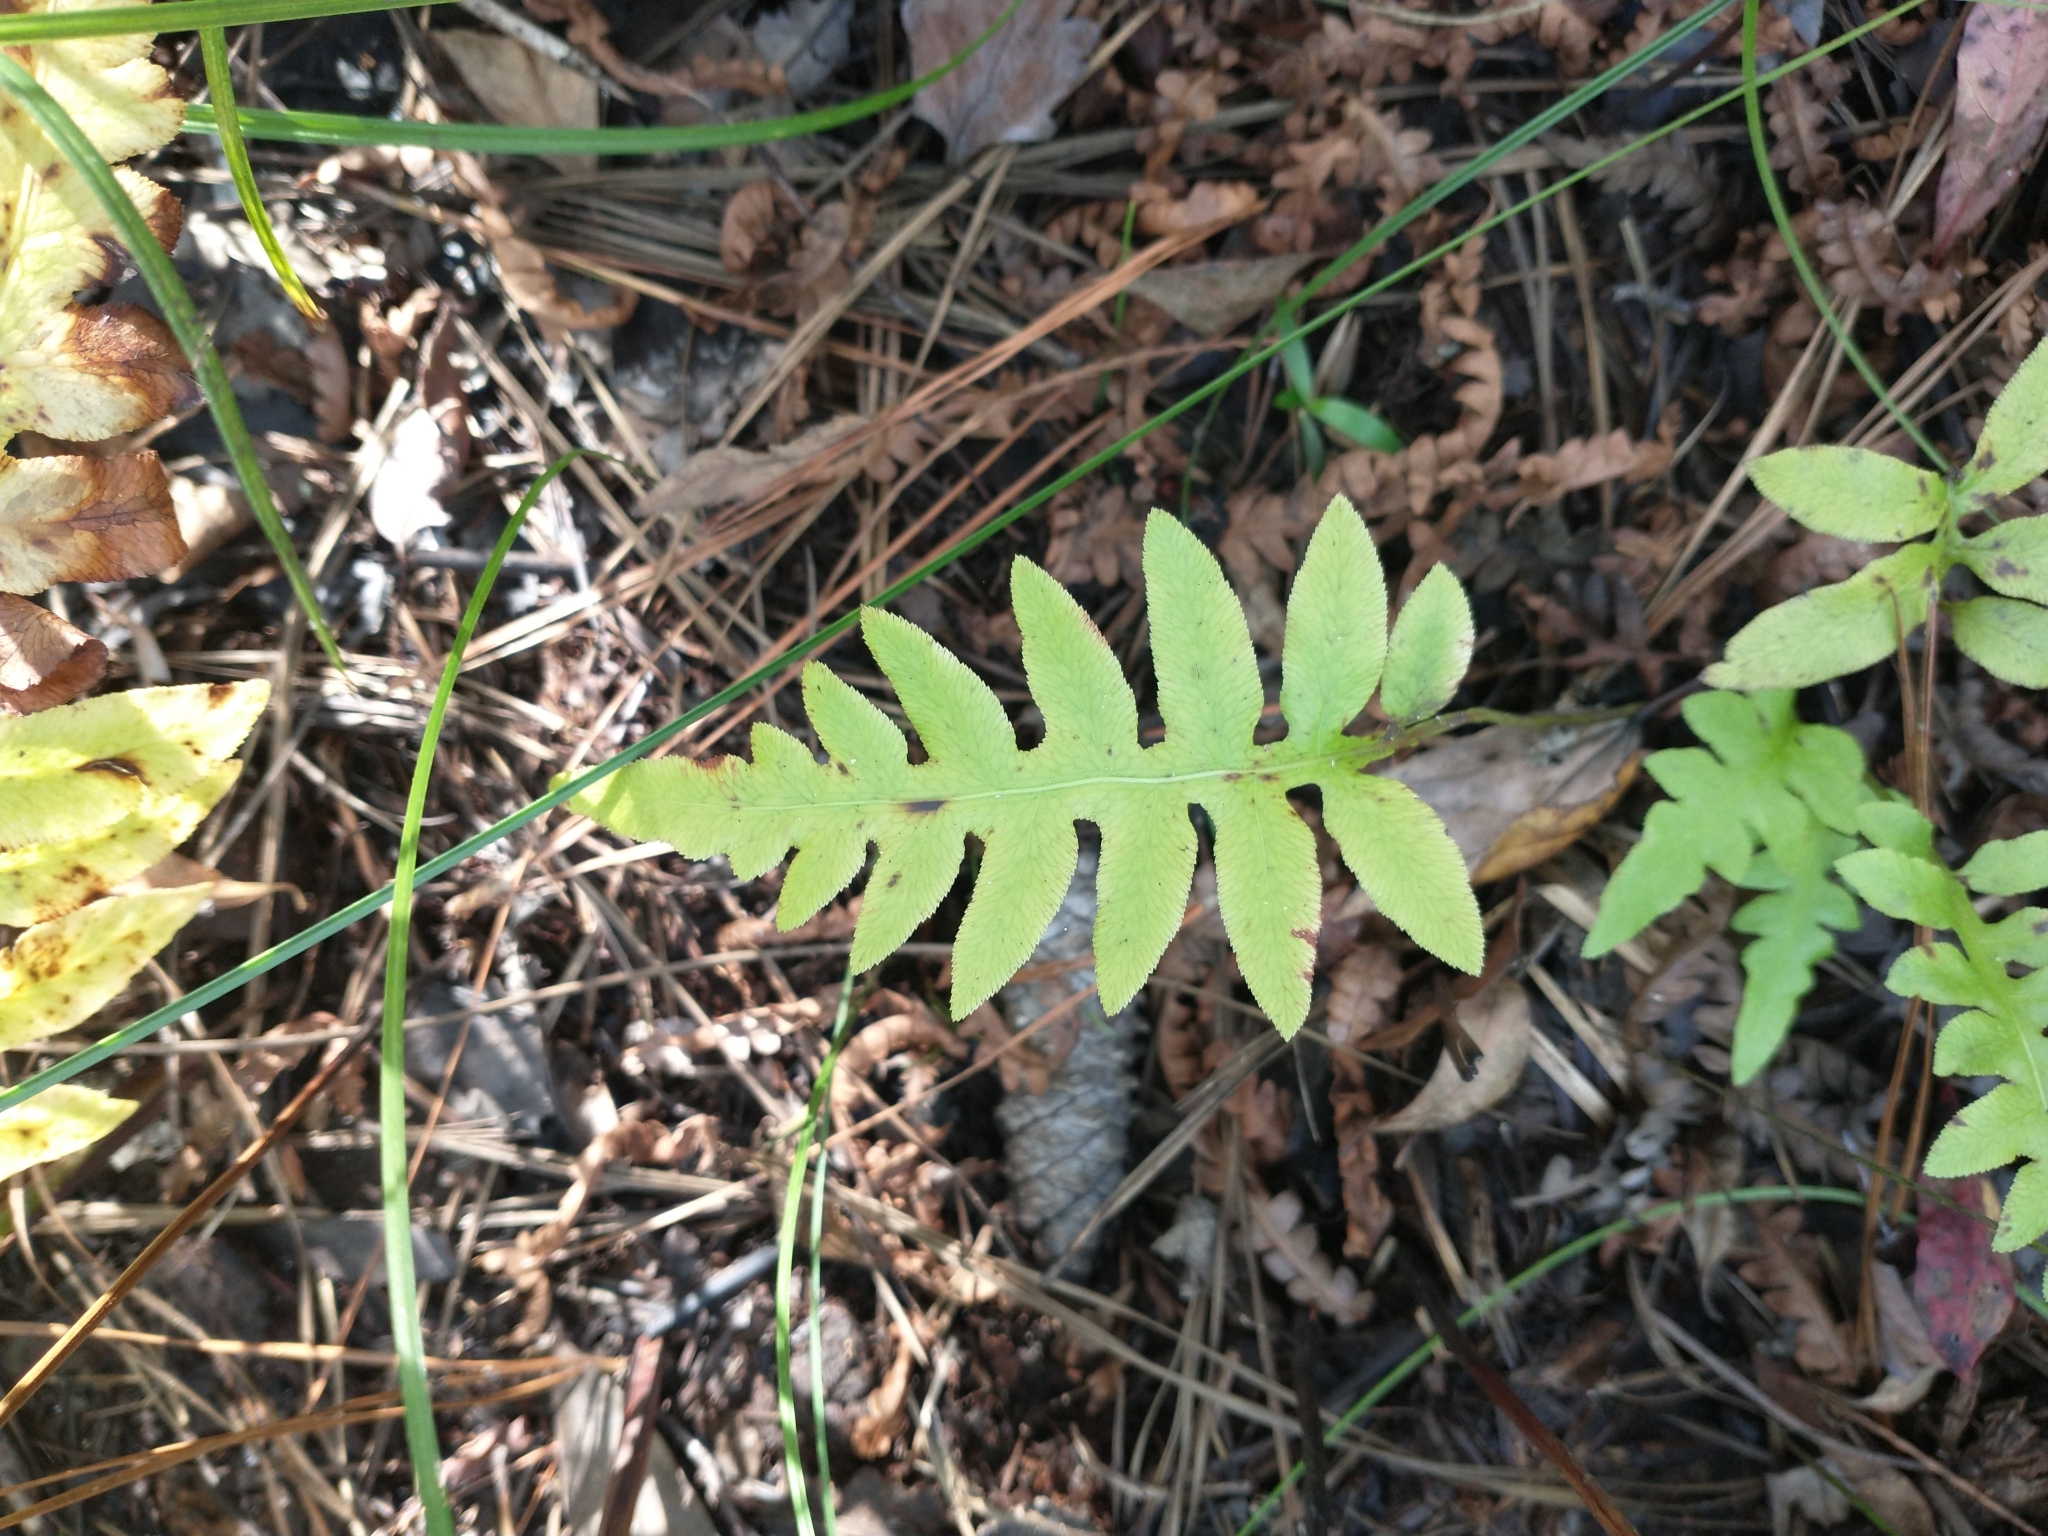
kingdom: Plantae
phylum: Tracheophyta
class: Polypodiopsida
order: Polypodiales
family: Blechnaceae
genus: Lorinseria
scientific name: Lorinseria areolata
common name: Dwarf chain fern
